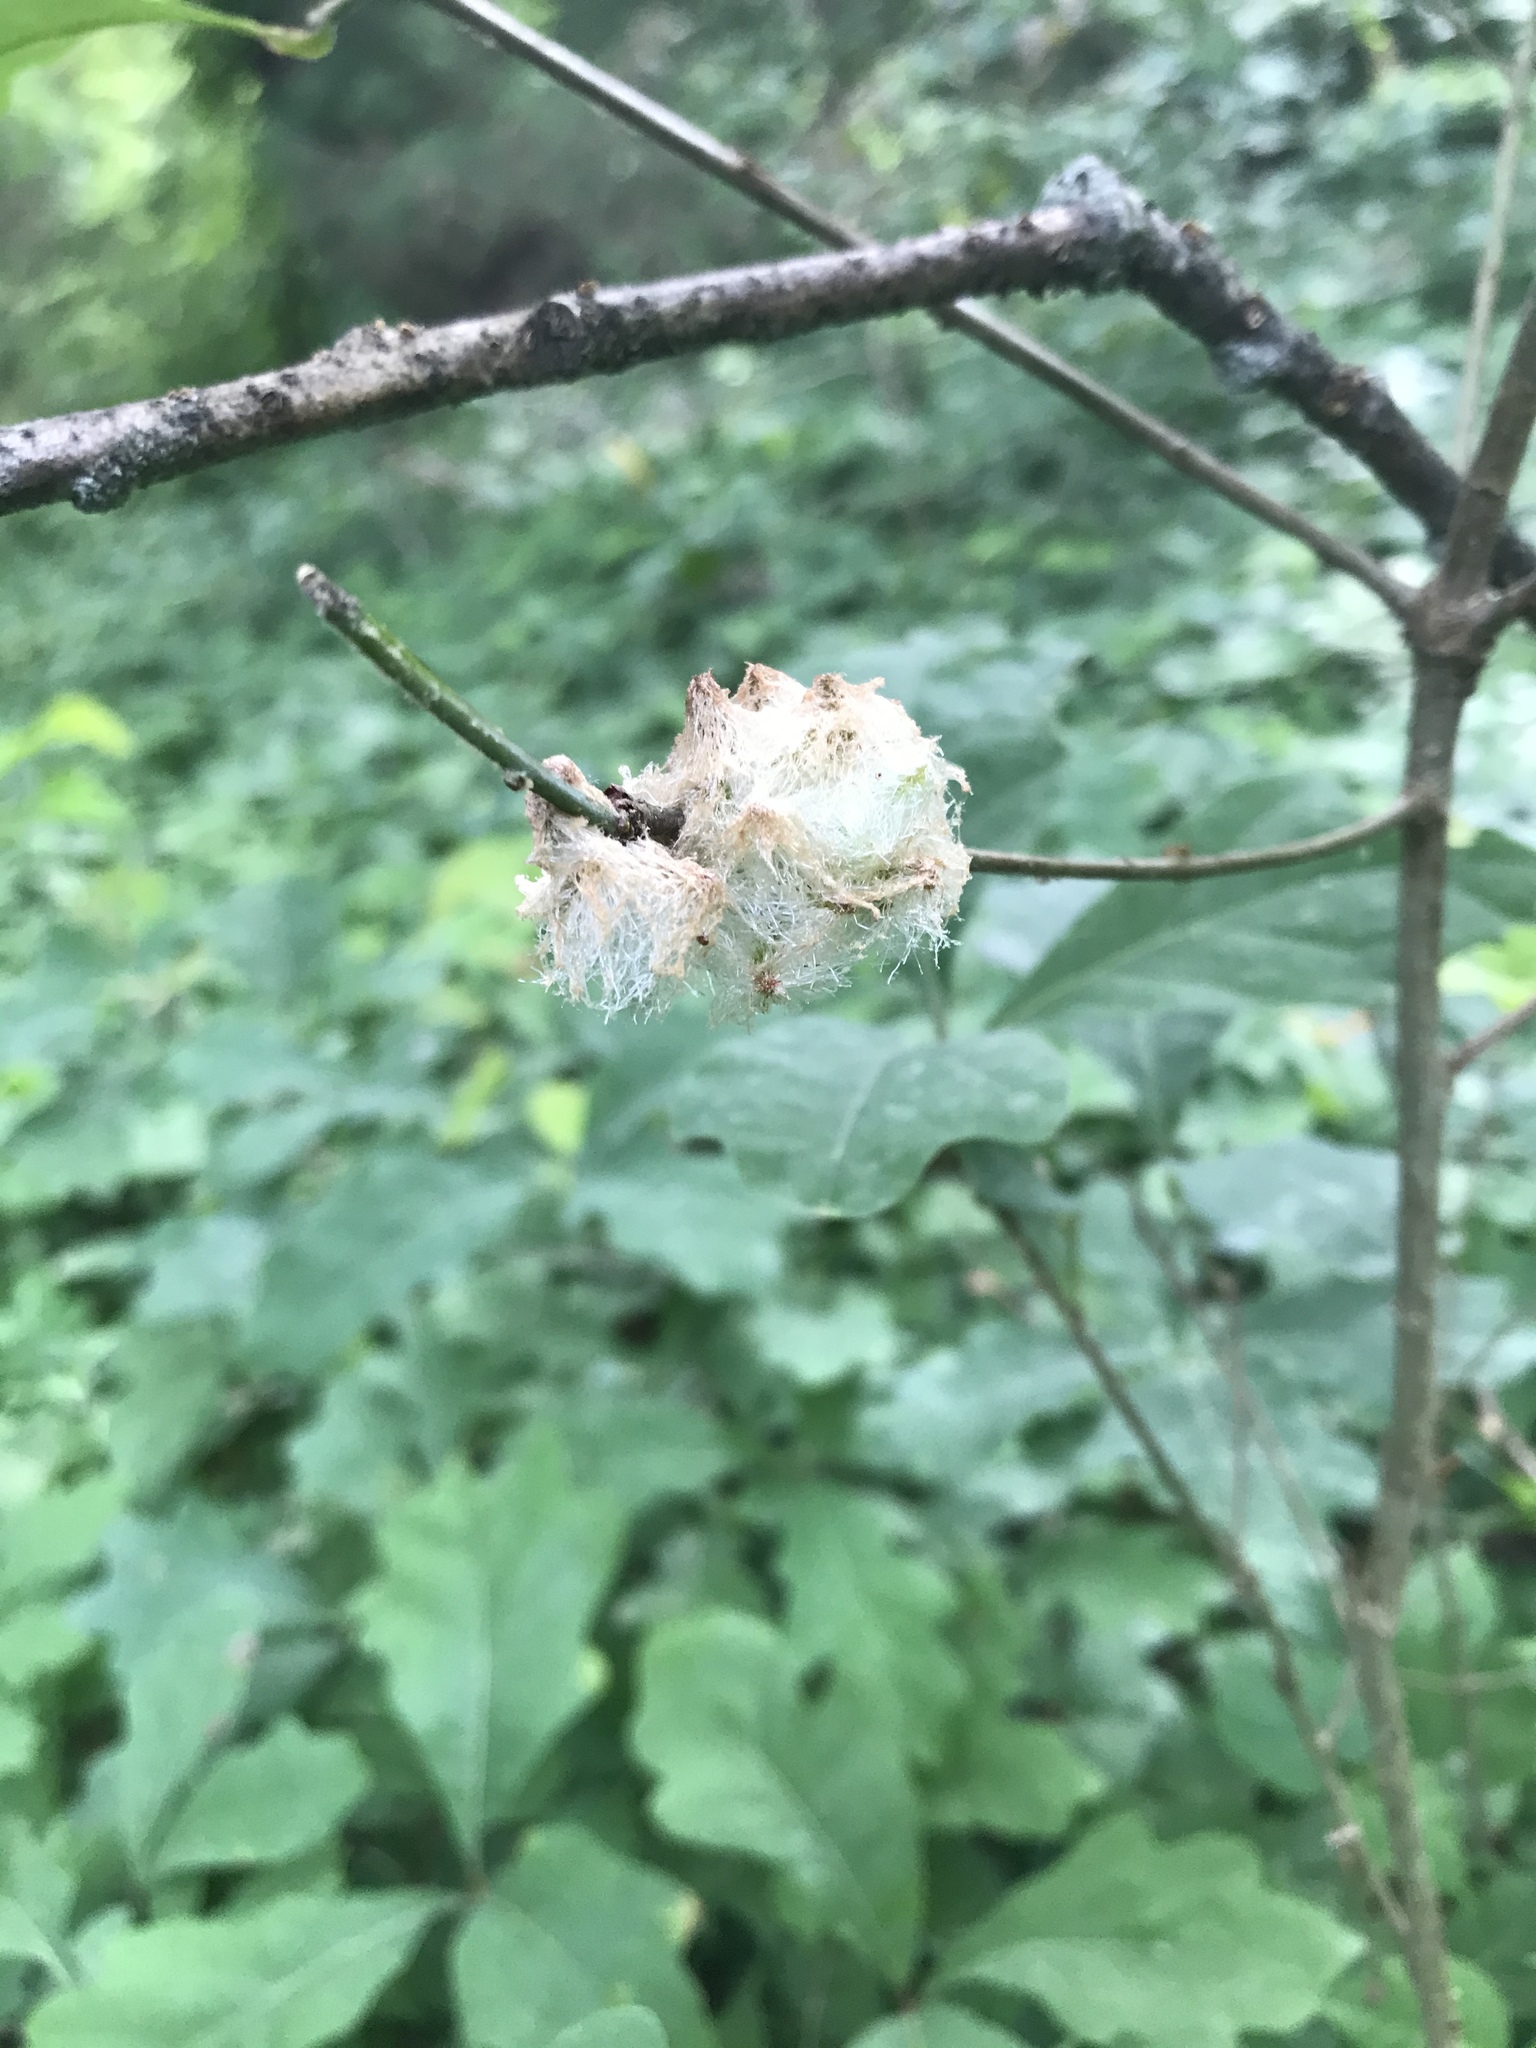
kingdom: Animalia
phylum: Arthropoda
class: Insecta
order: Hymenoptera
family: Cynipidae
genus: Callirhytis
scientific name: Callirhytis
